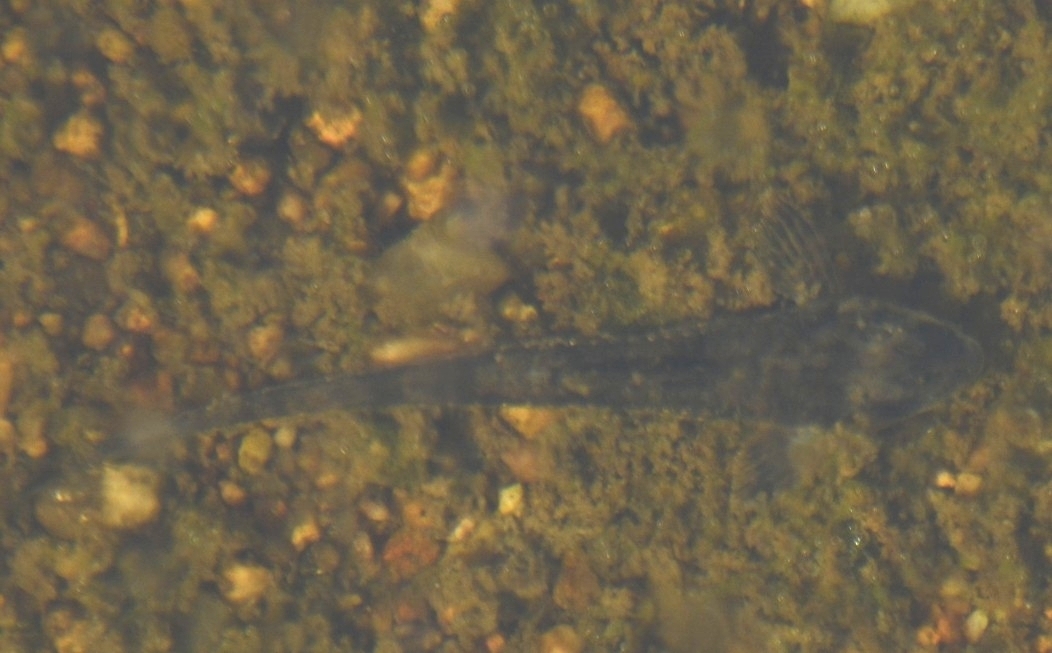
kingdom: Animalia
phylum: Chordata
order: Siluriformes
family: Loricariidae
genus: Rineloricaria
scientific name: Rineloricaria catamarcensis
